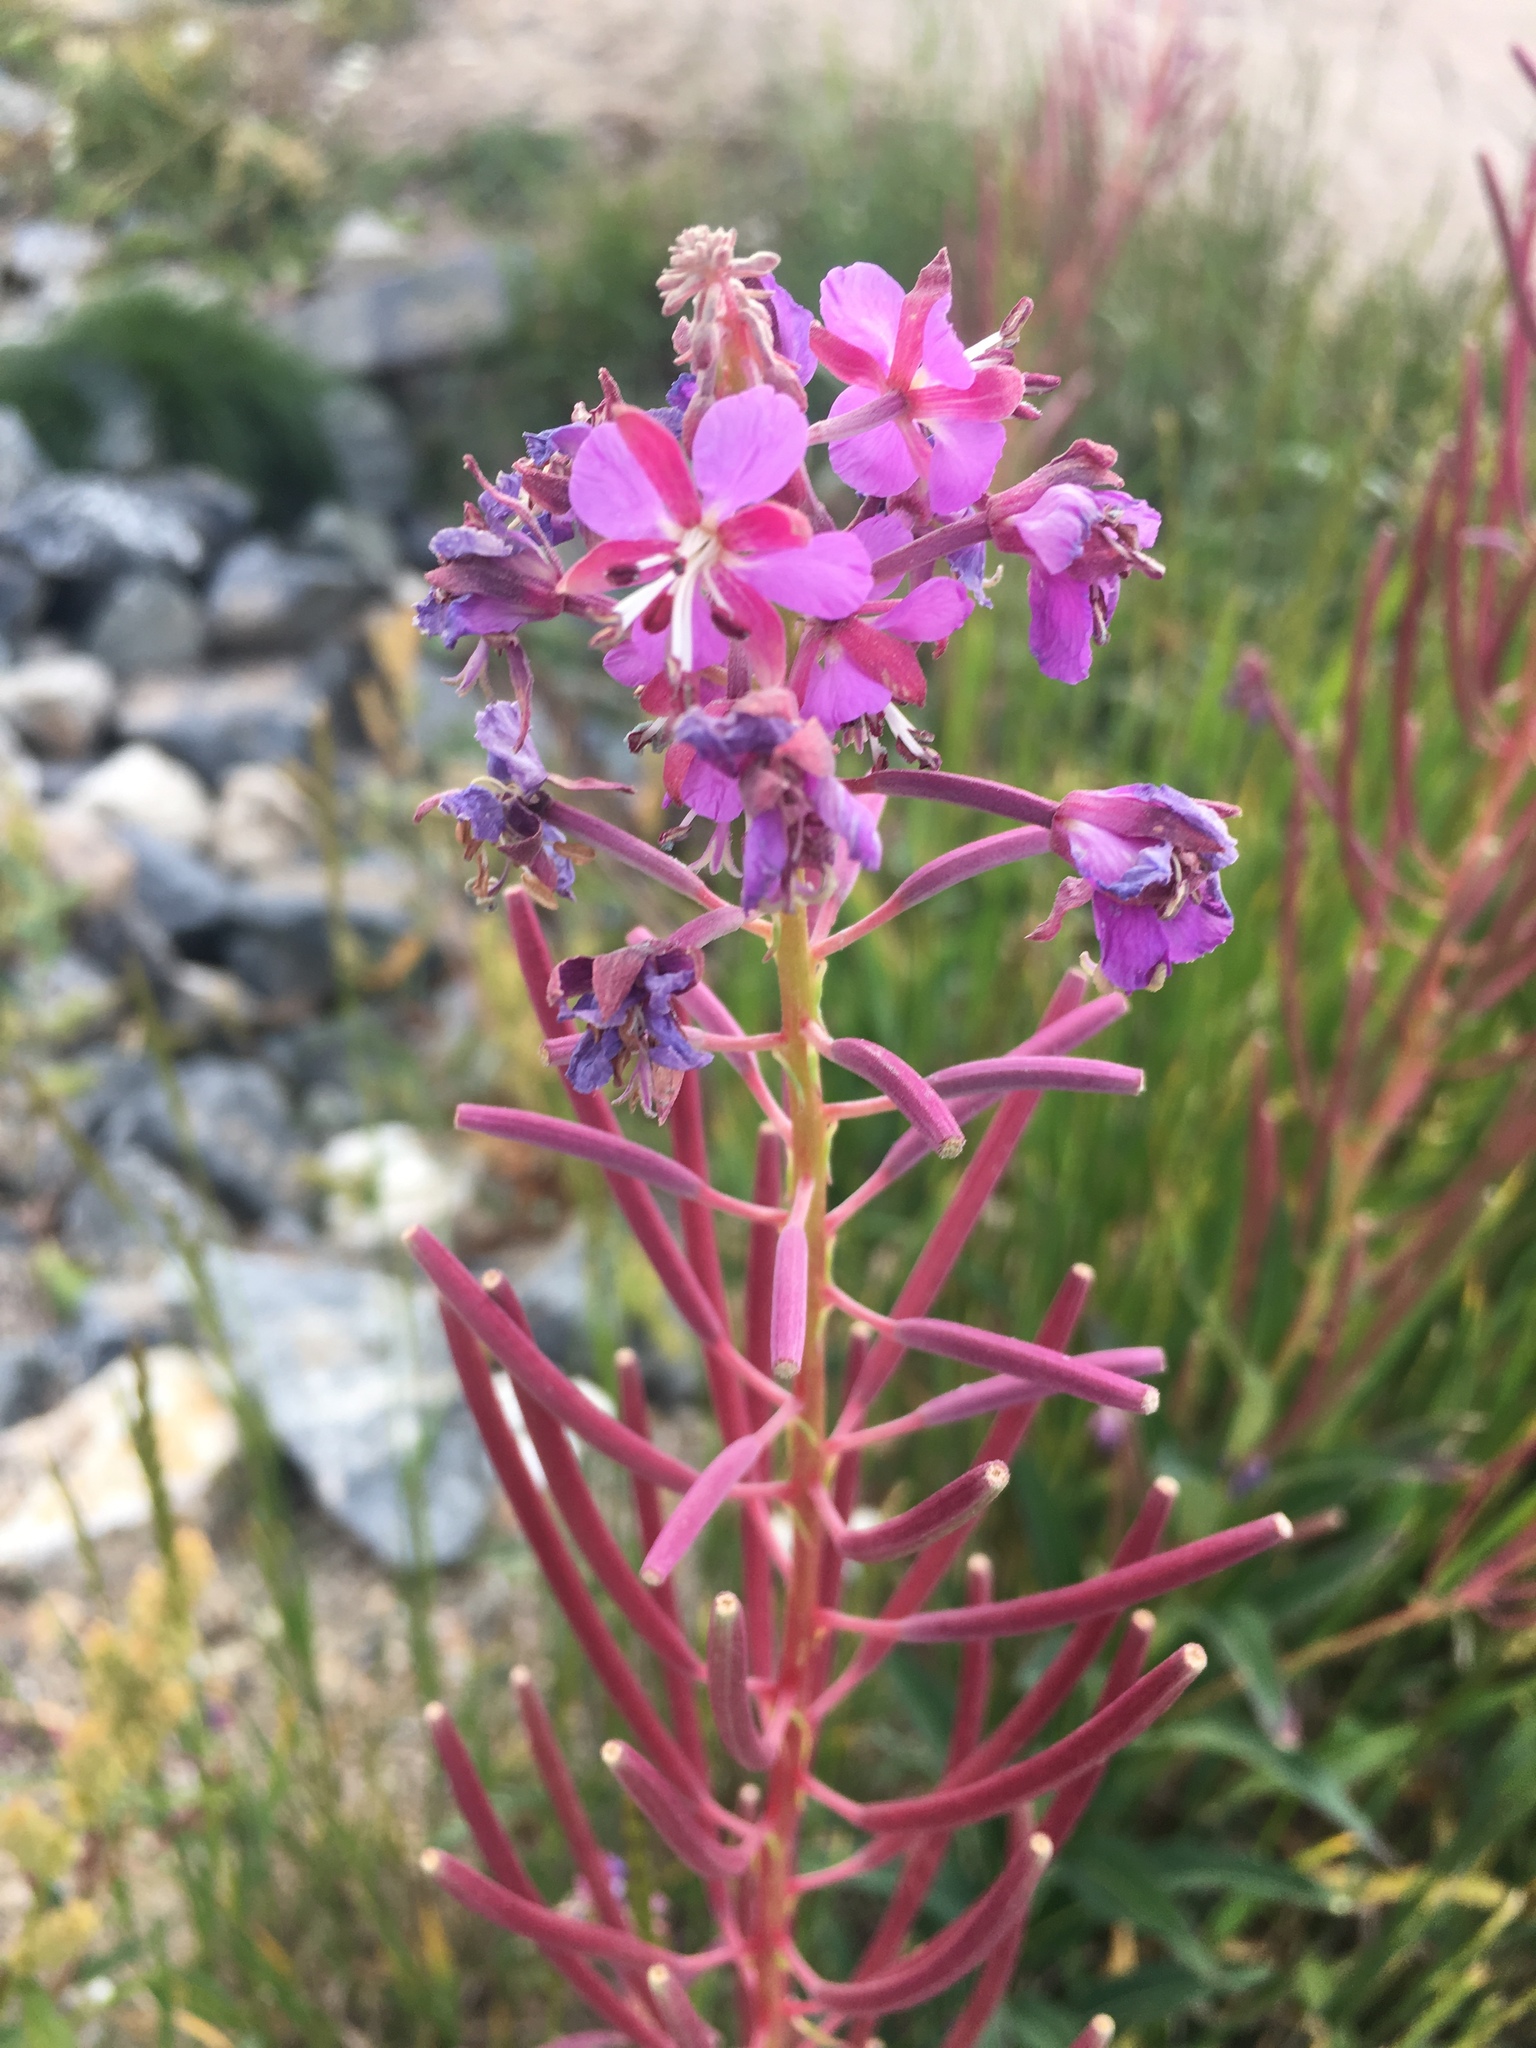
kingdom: Plantae
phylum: Tracheophyta
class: Magnoliopsida
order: Myrtales
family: Onagraceae
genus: Chamaenerion
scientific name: Chamaenerion angustifolium
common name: Fireweed
